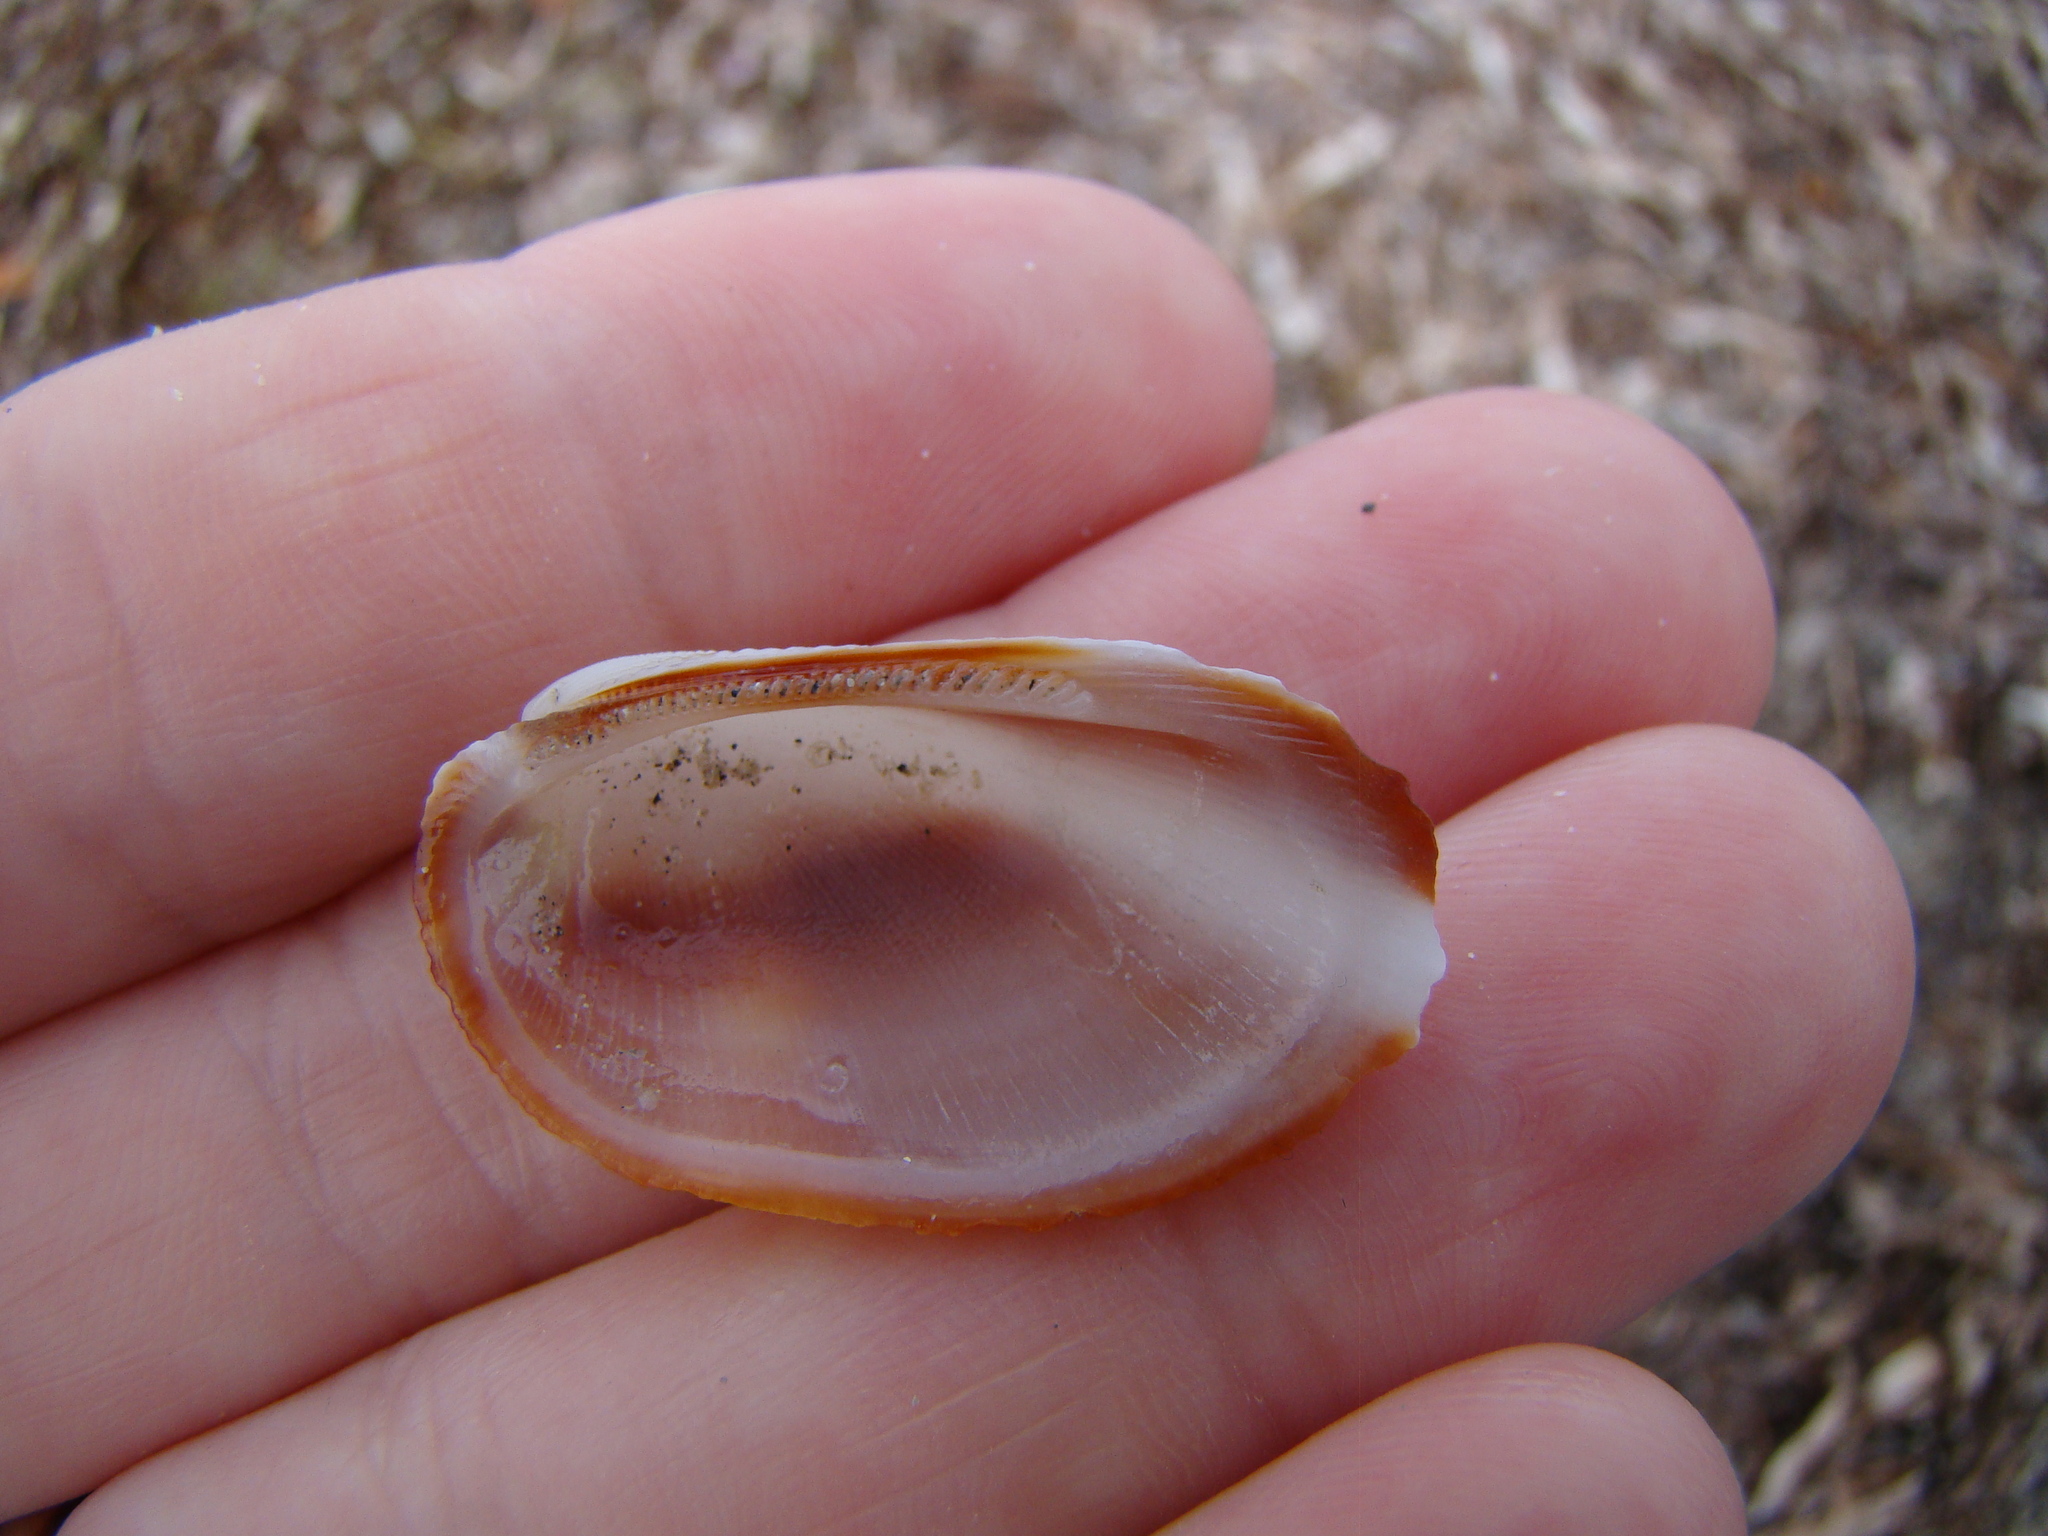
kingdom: Animalia
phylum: Mollusca
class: Bivalvia
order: Arcida
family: Arcidae
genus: Barbatia
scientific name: Barbatia amygdalumtostum
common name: Burnt-almond ark
